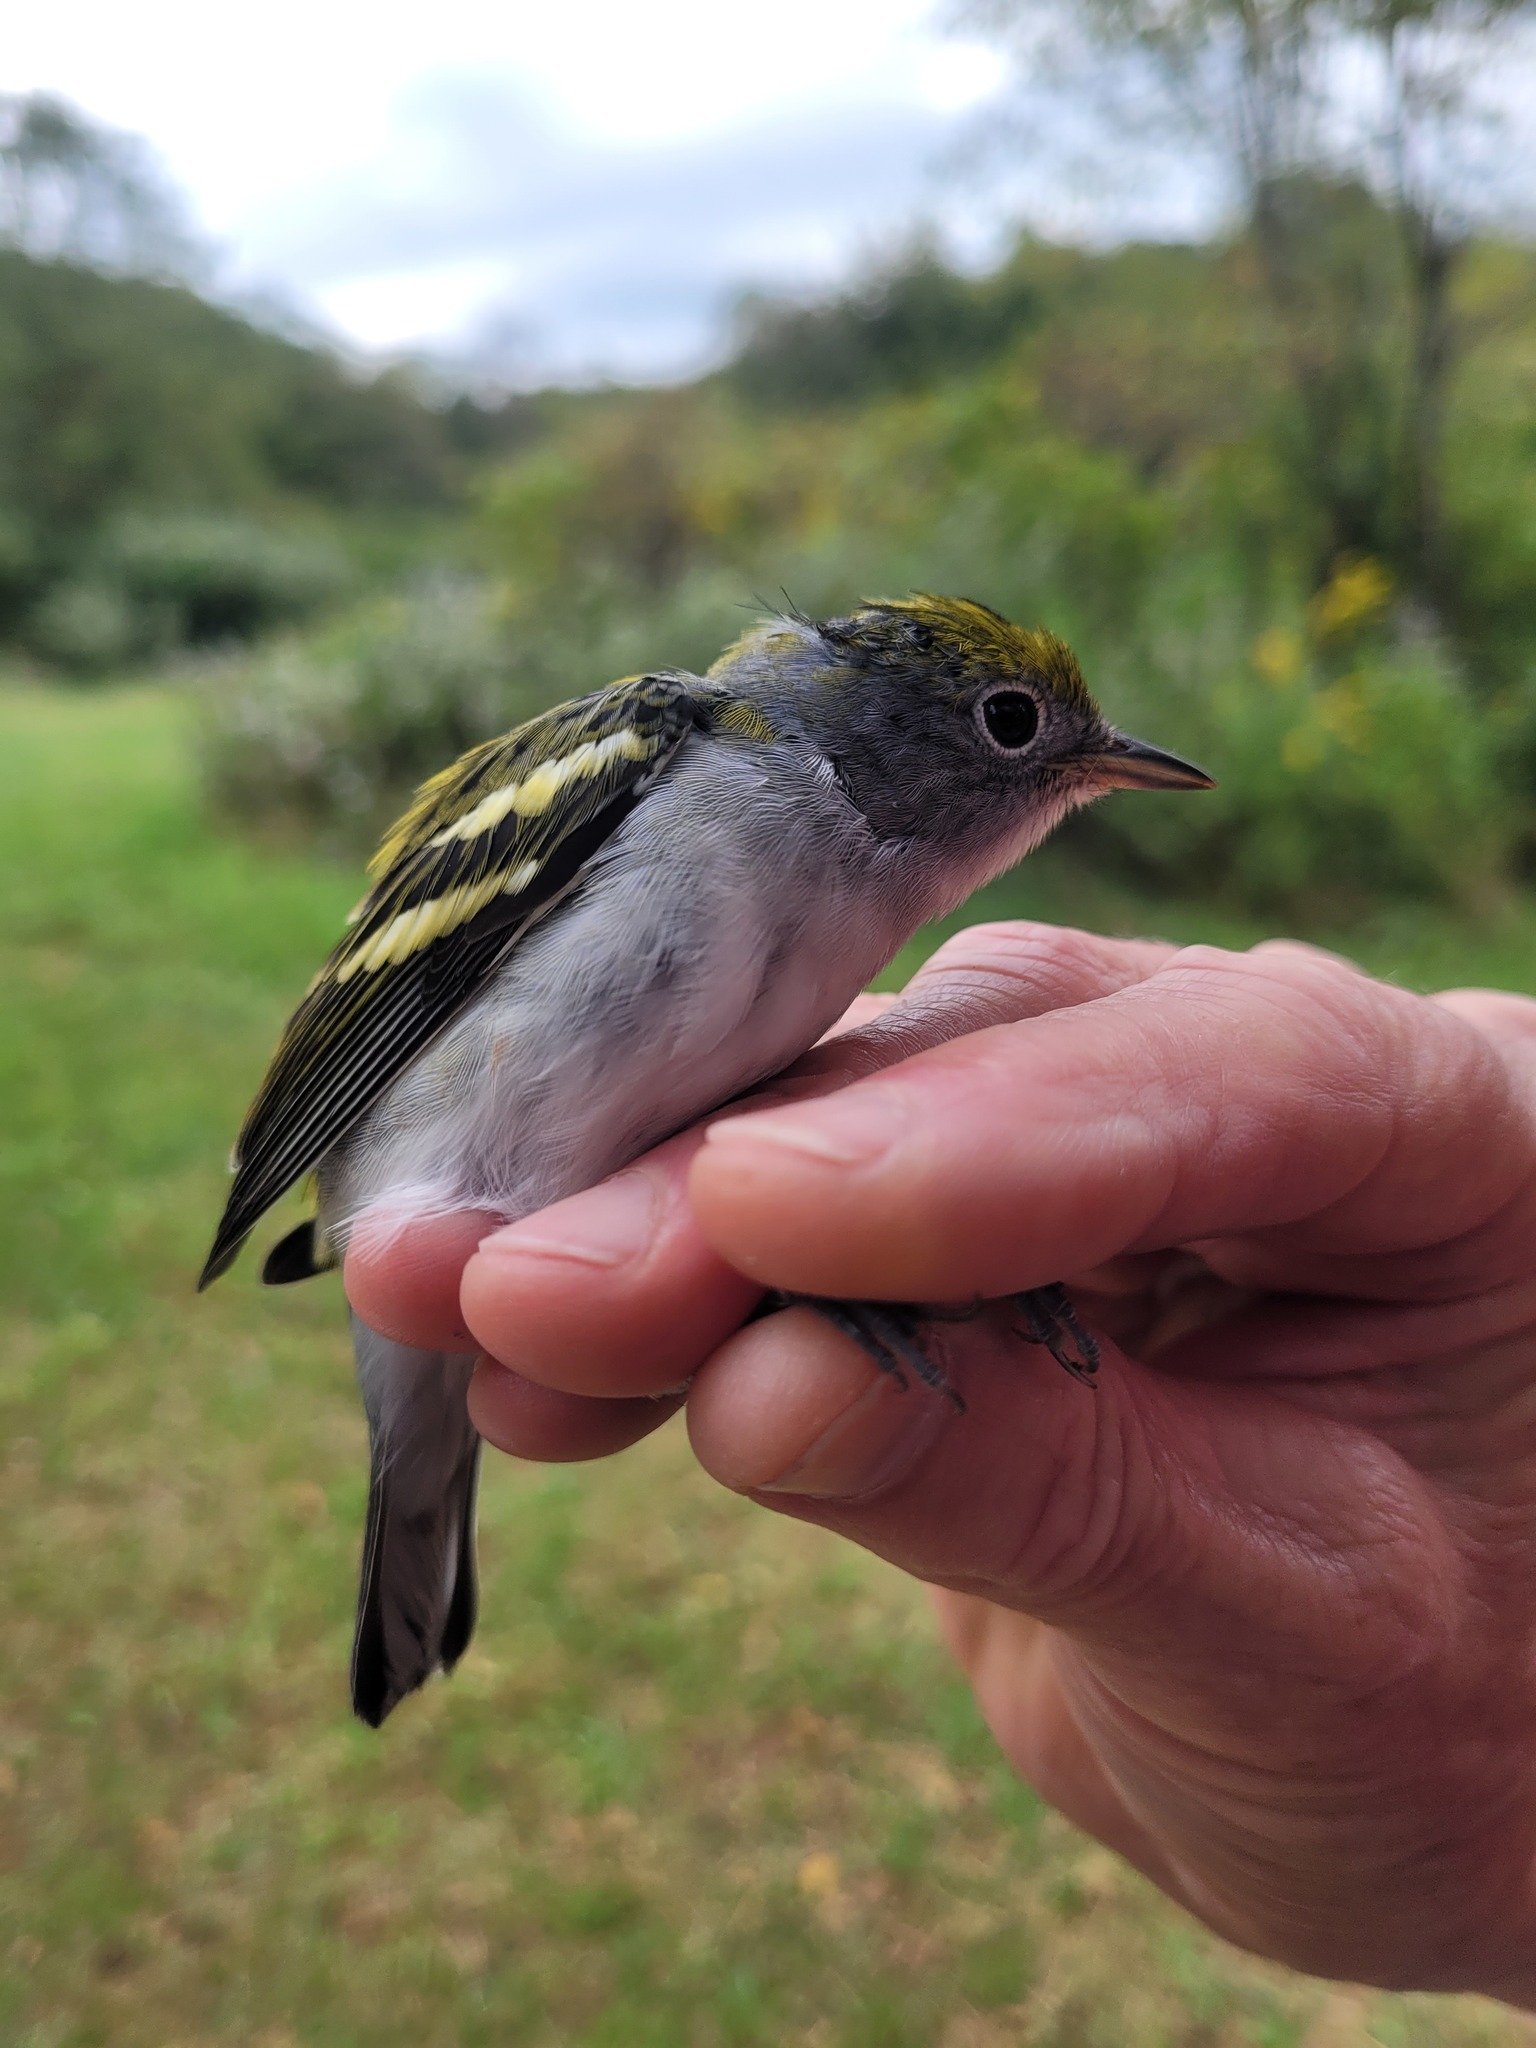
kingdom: Animalia
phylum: Chordata
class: Aves
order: Passeriformes
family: Parulidae
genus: Setophaga
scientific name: Setophaga pensylvanica
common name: Chestnut-sided warbler
